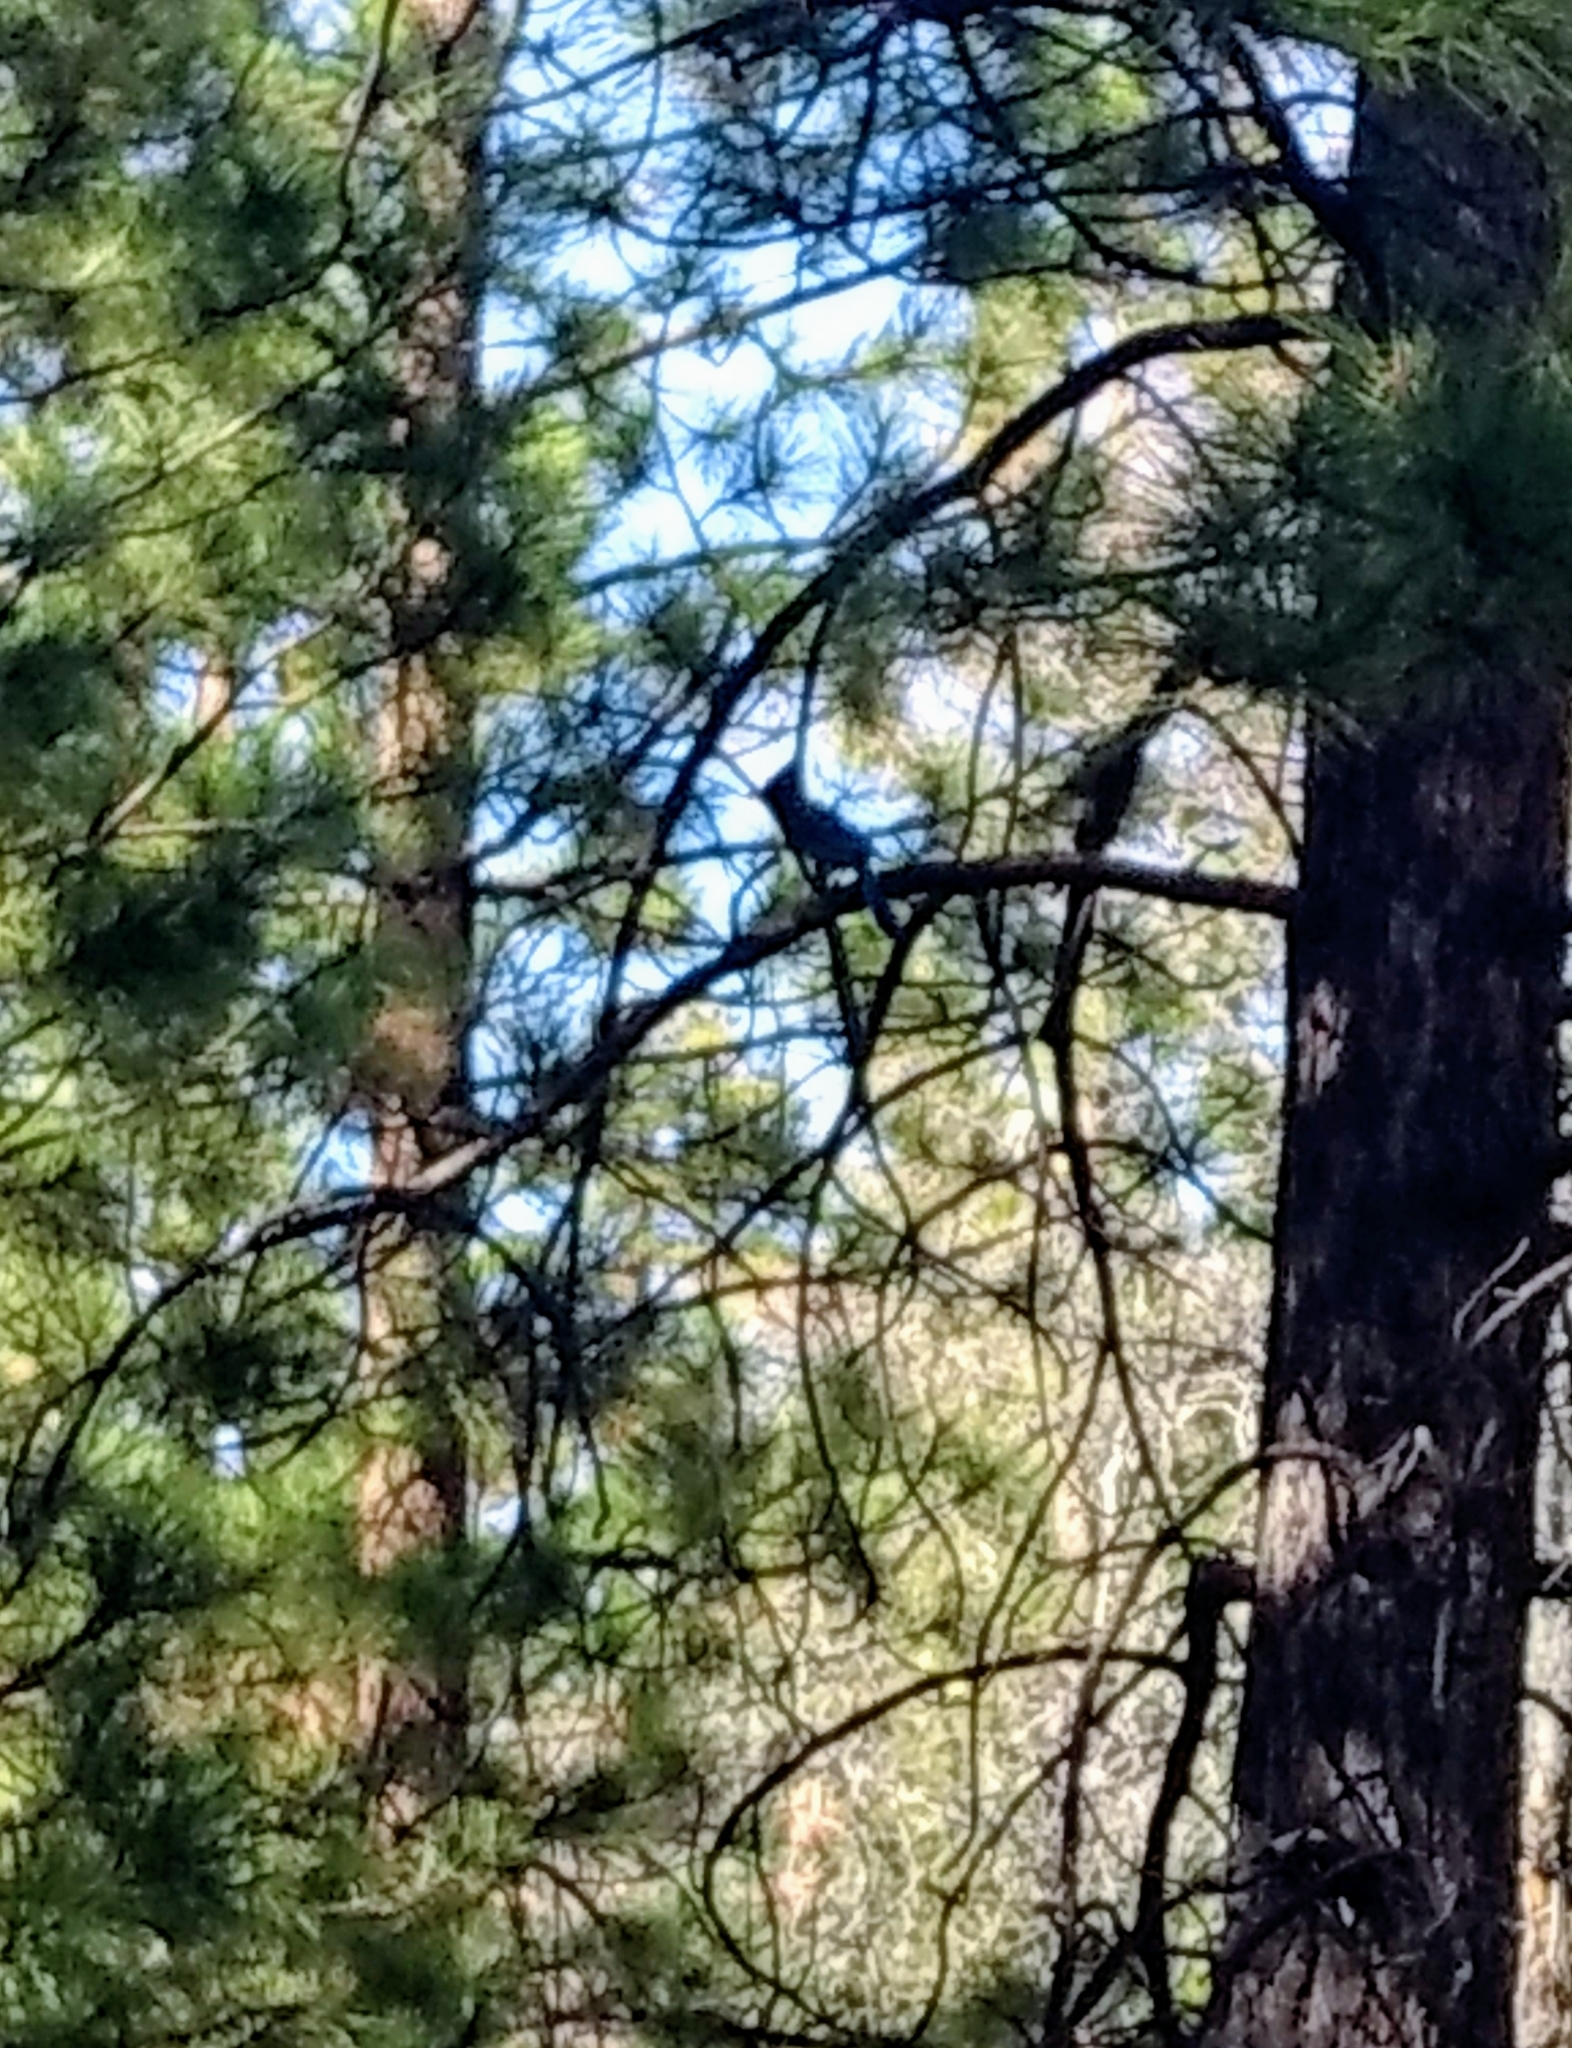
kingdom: Animalia
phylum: Chordata
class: Aves
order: Passeriformes
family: Corvidae
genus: Cyanocitta
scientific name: Cyanocitta stelleri
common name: Steller's jay
